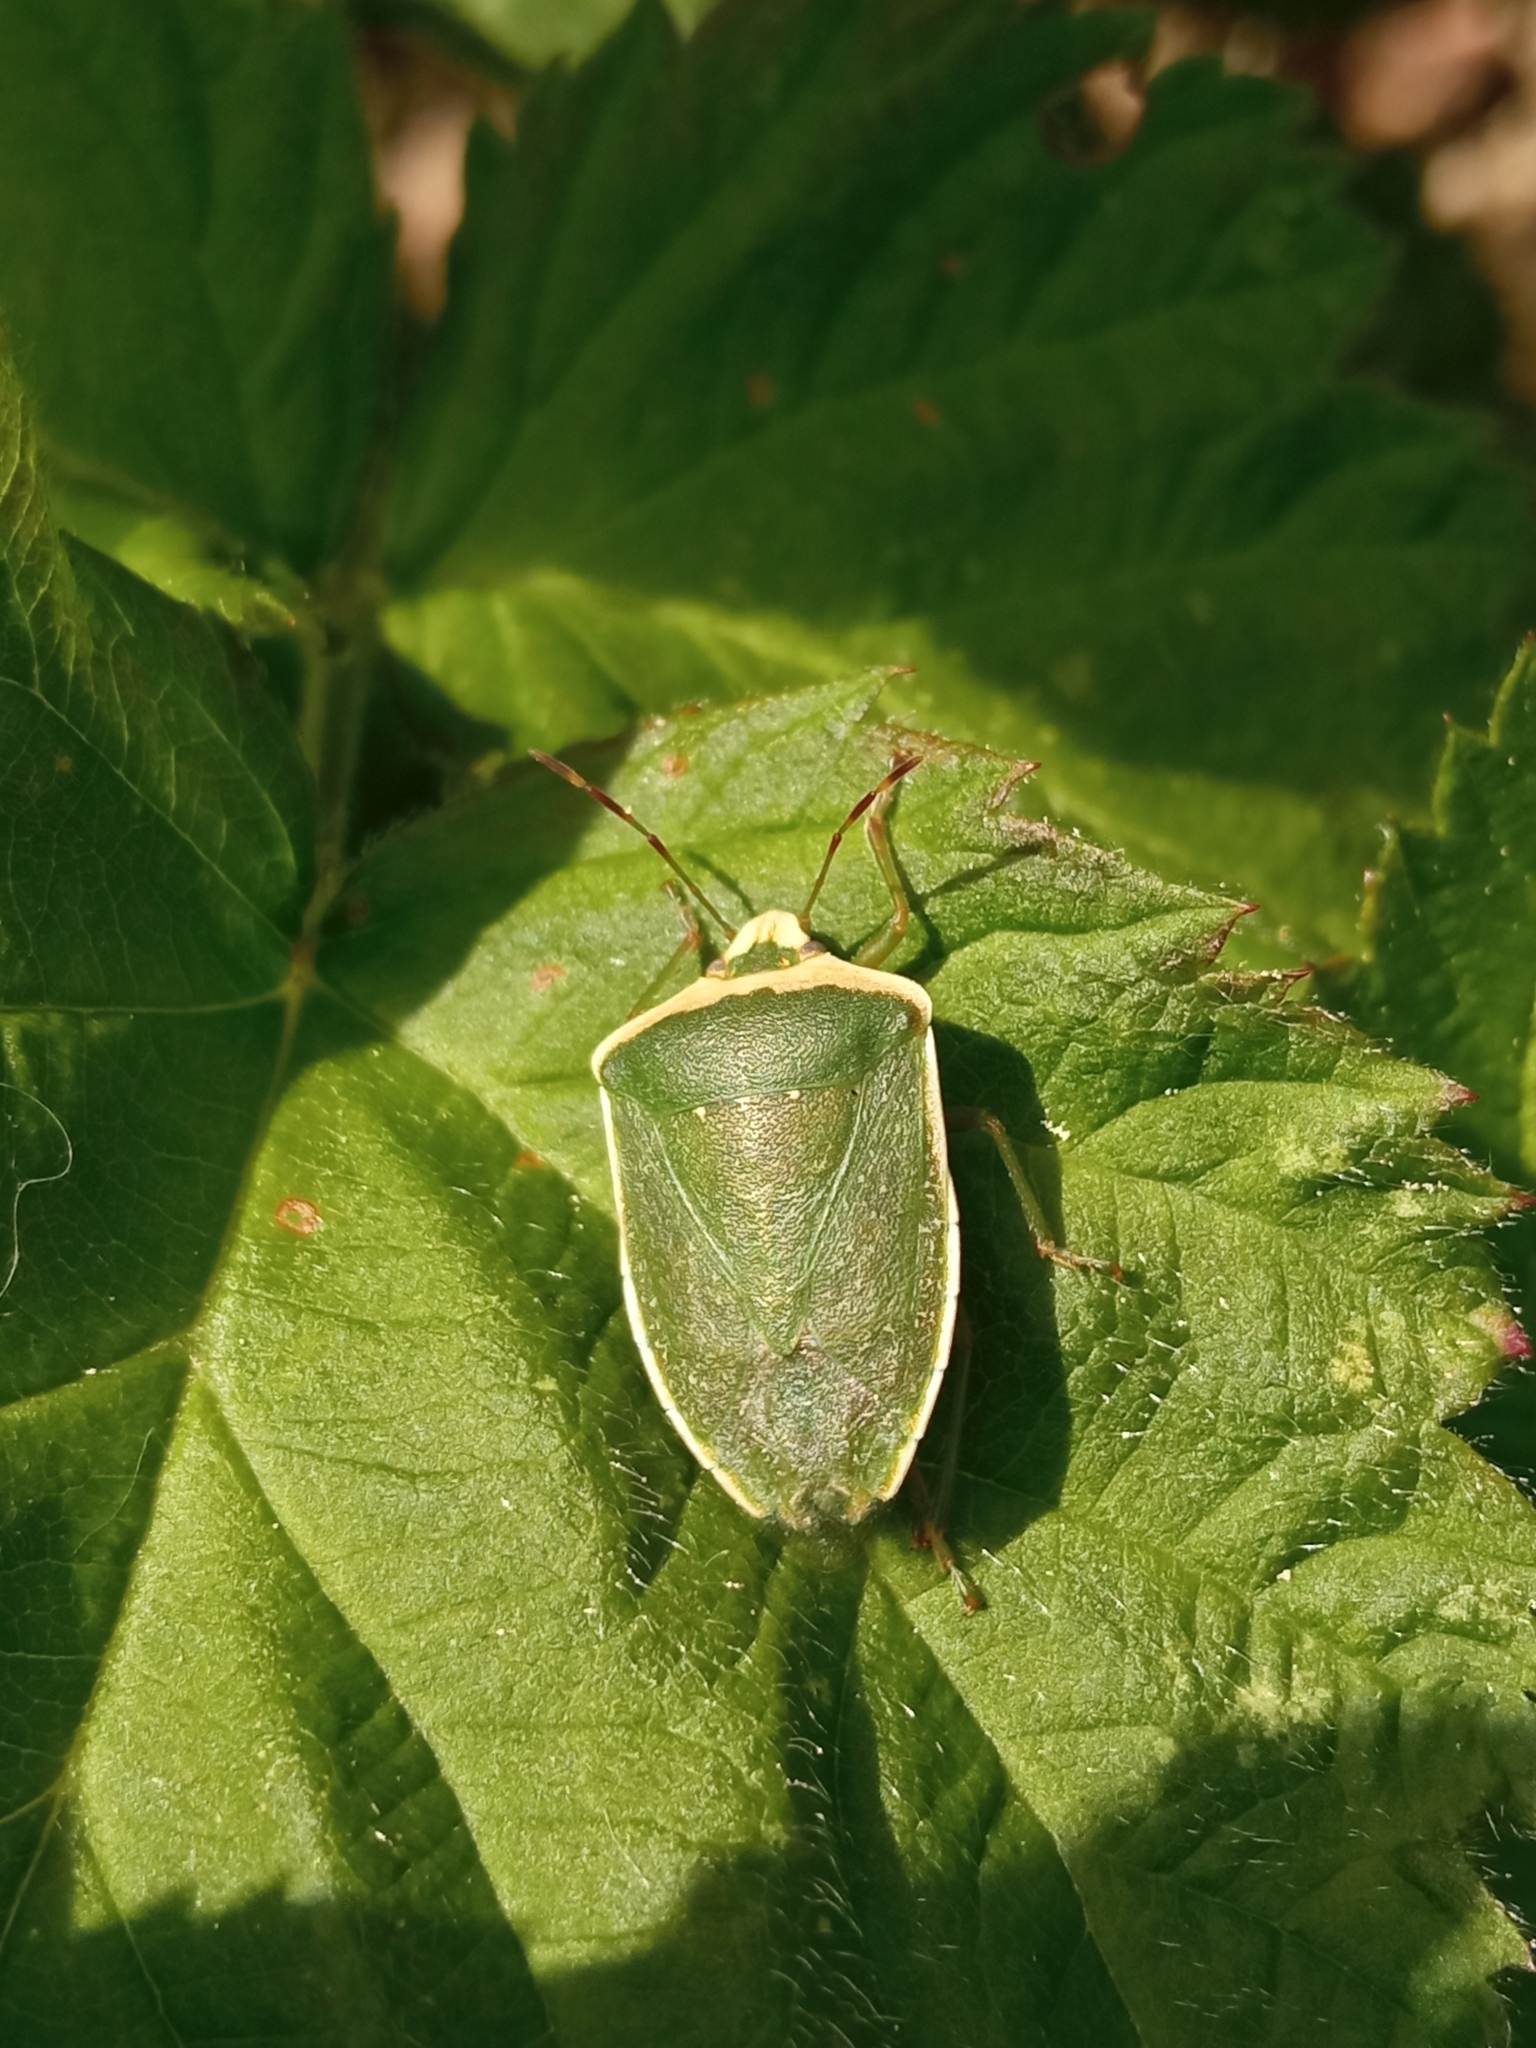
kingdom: Animalia
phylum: Arthropoda
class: Insecta
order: Hemiptera
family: Pentatomidae
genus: Nezara
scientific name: Nezara viridula
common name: Southern green stink bug
